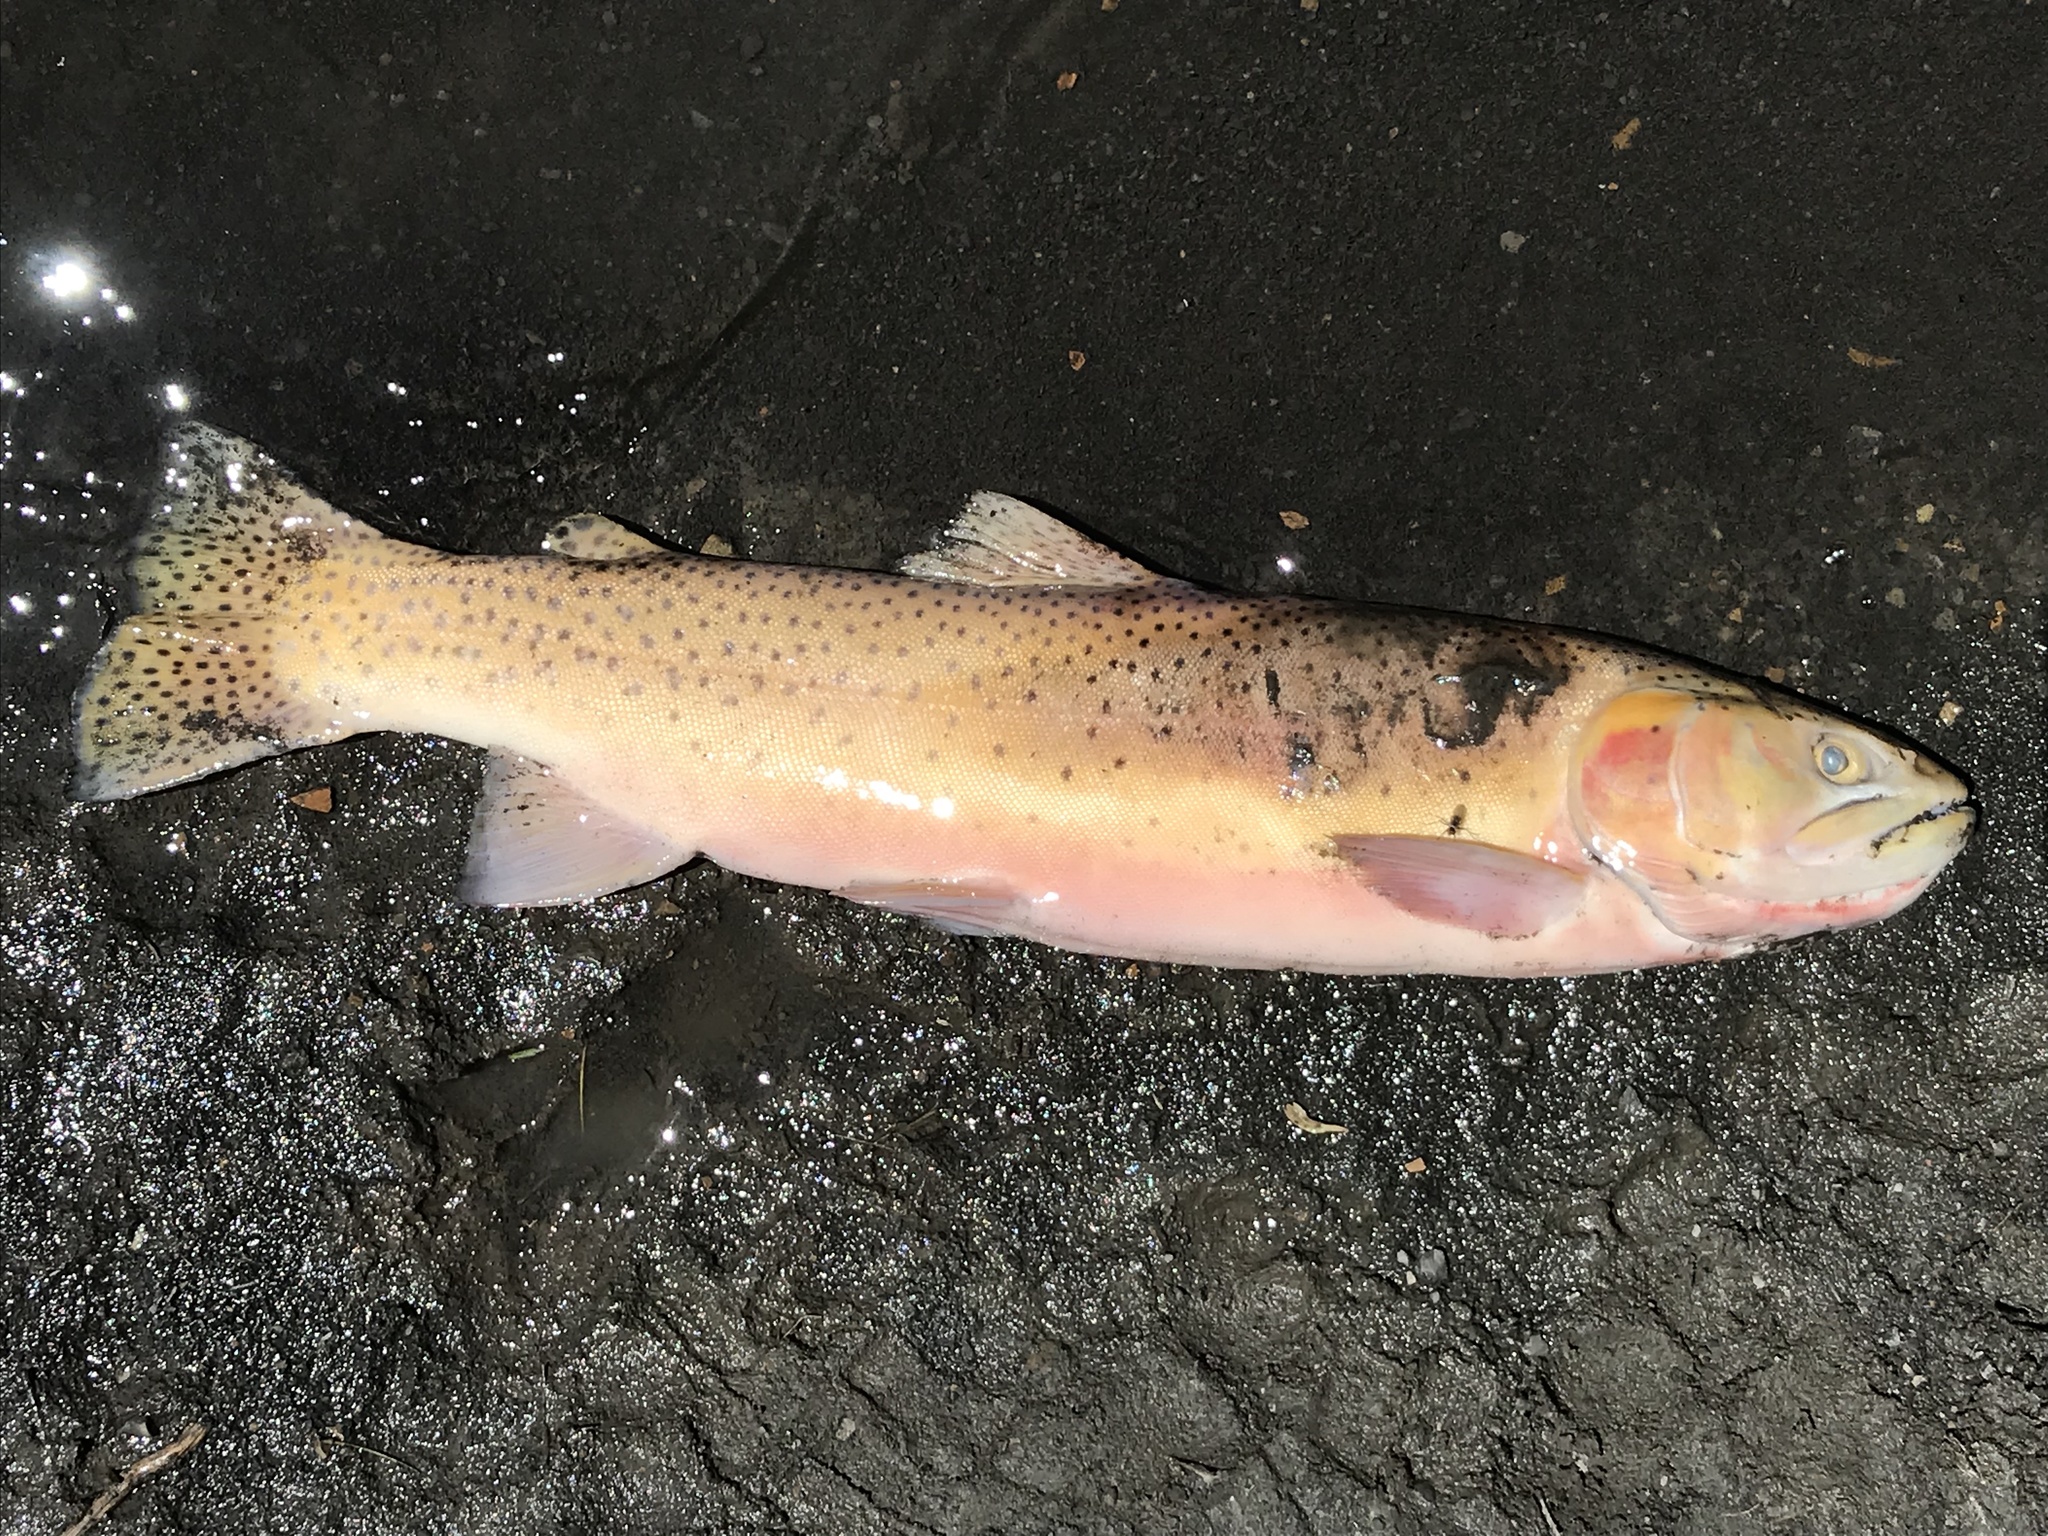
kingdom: Animalia
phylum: Chordata
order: Salmoniformes
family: Salmonidae
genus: Oncorhynchus
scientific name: Oncorhynchus virginalis
